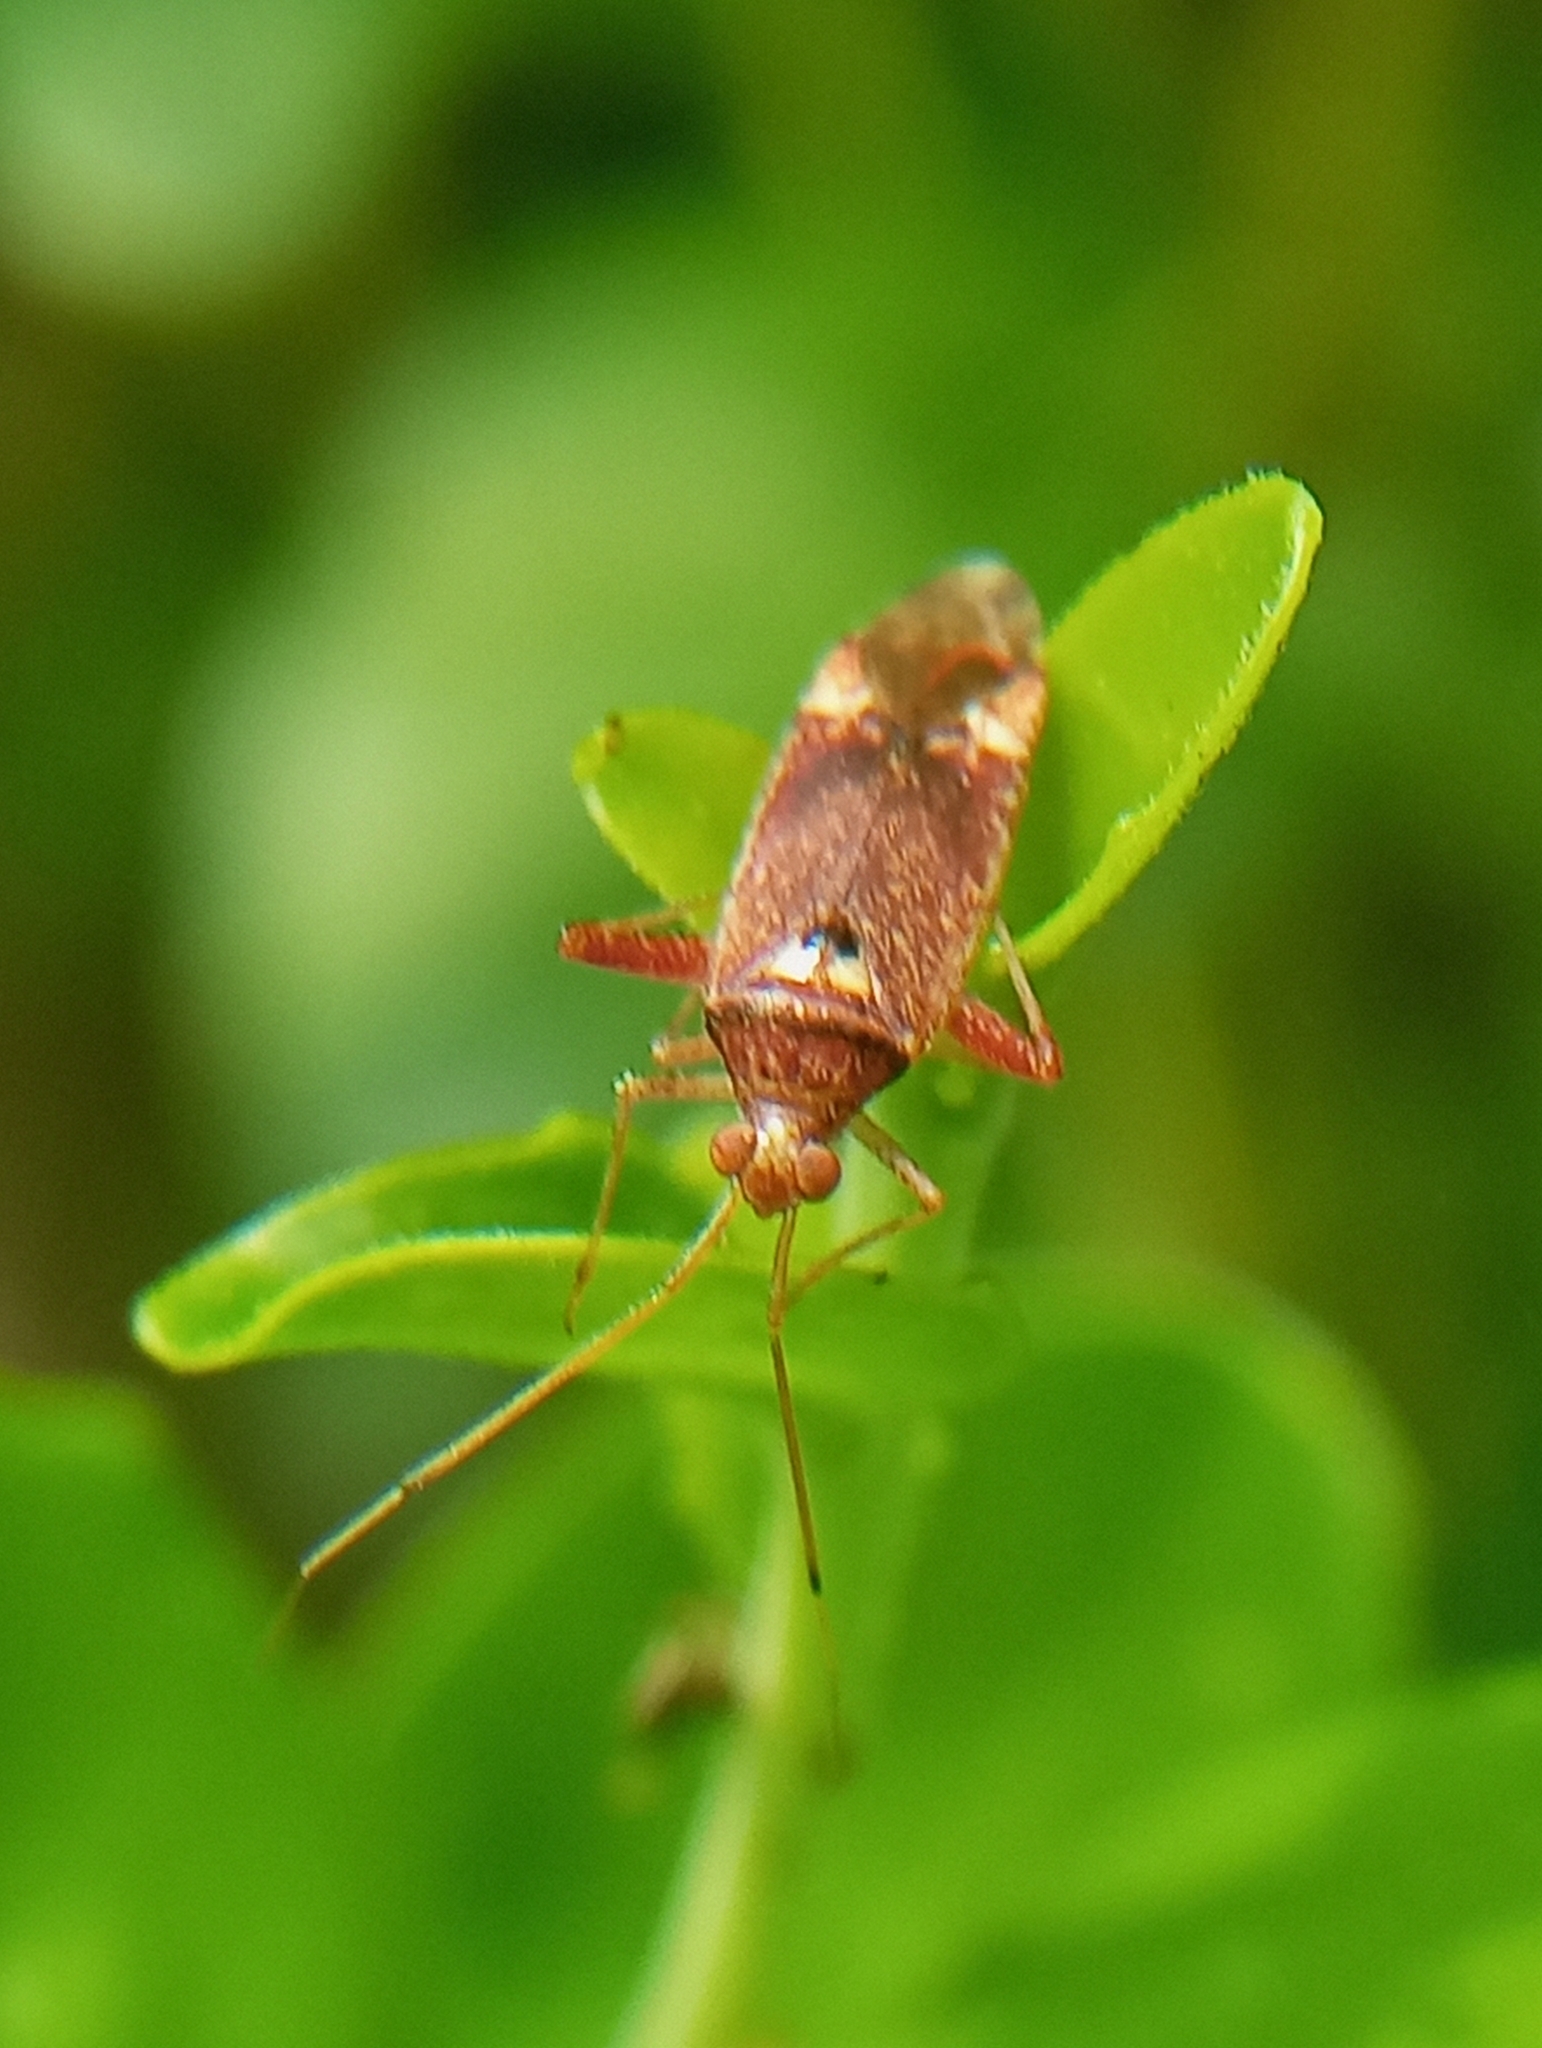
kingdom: Animalia
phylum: Arthropoda
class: Insecta
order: Hemiptera
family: Miridae
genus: Phytocoris
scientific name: Phytocoris
